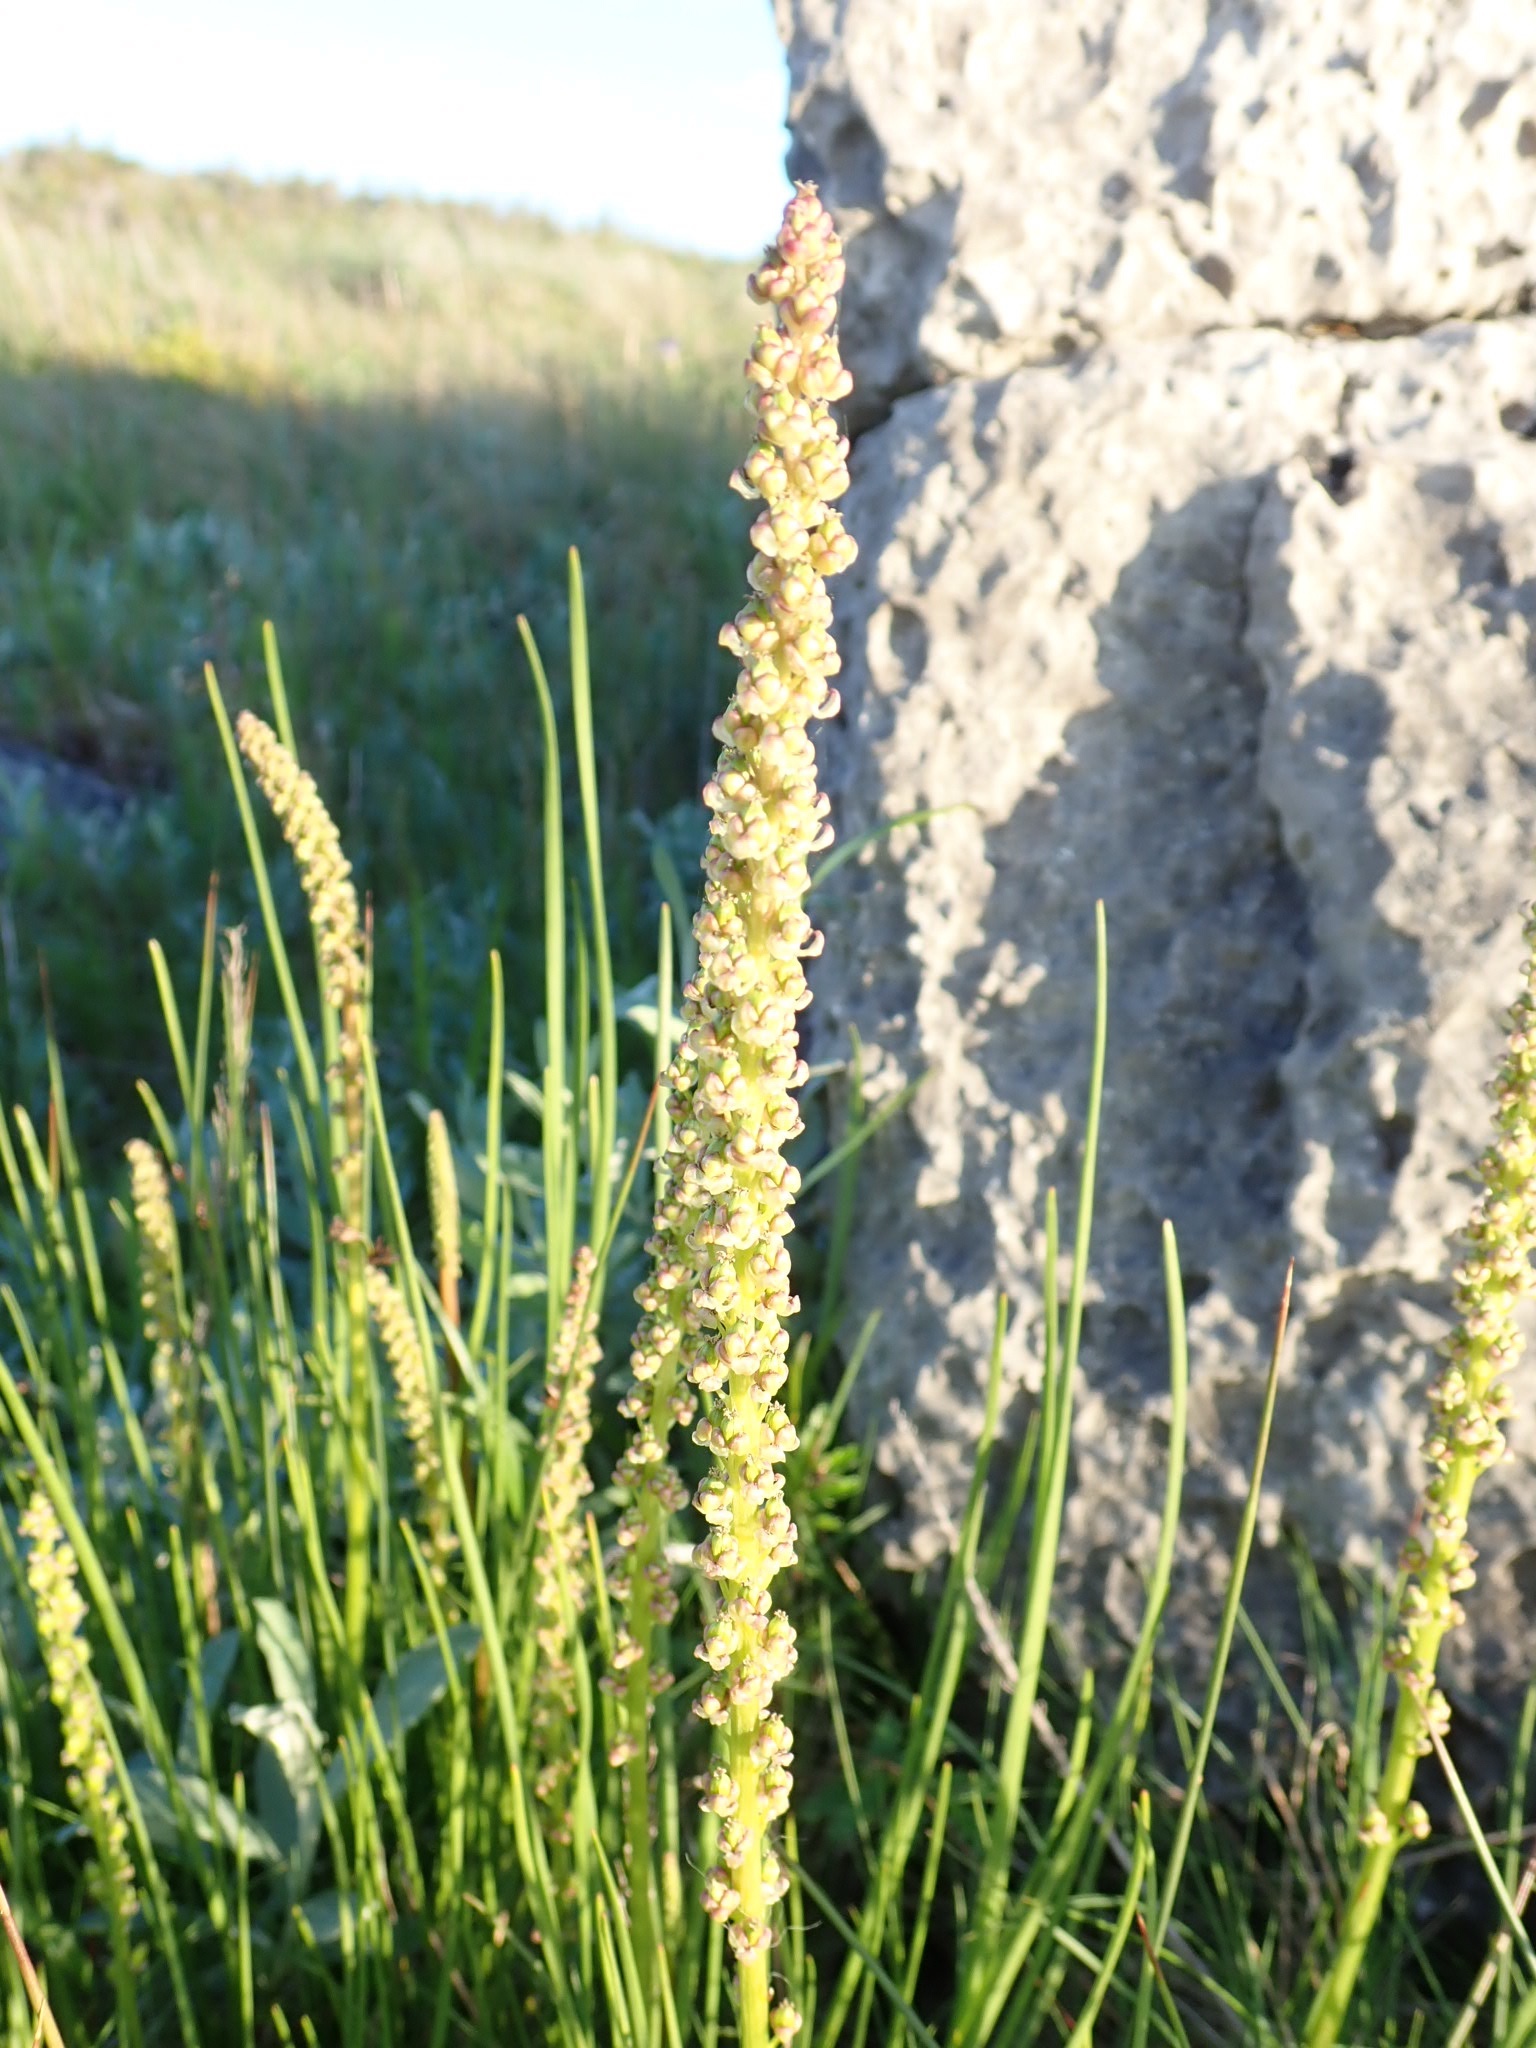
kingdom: Plantae
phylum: Tracheophyta
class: Liliopsida
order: Alismatales
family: Juncaginaceae
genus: Triglochin
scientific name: Triglochin maritima
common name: Sea arrowgrass
